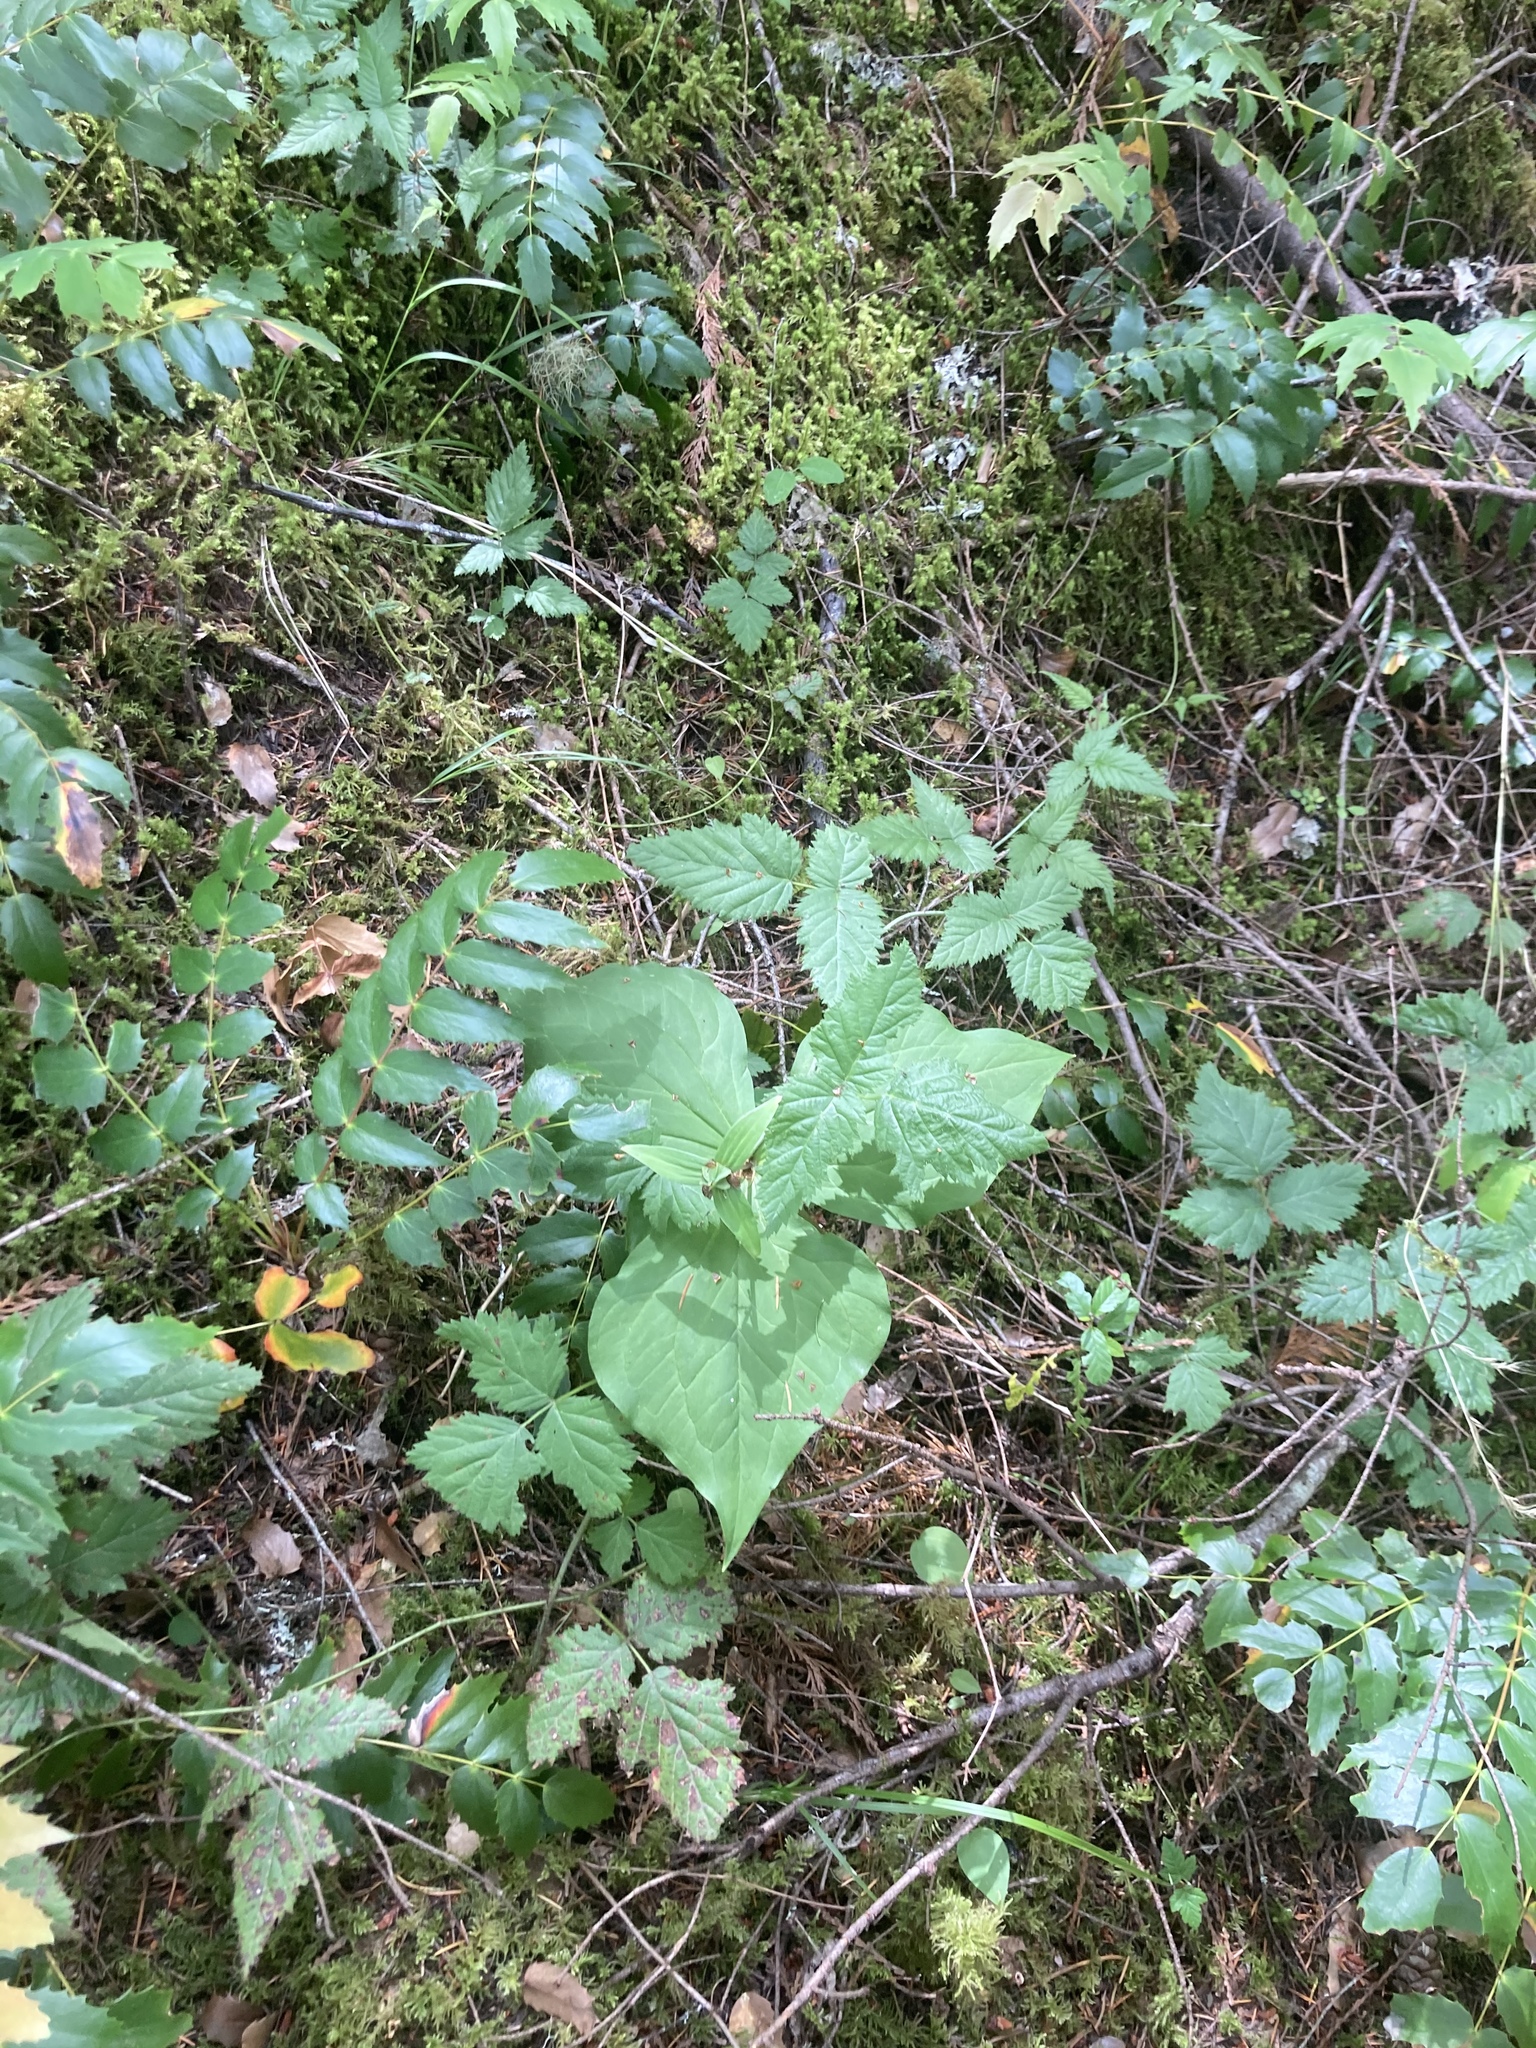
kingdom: Plantae
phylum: Tracheophyta
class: Liliopsida
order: Liliales
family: Melanthiaceae
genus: Trillium
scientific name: Trillium ovatum
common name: Pacific trillium
